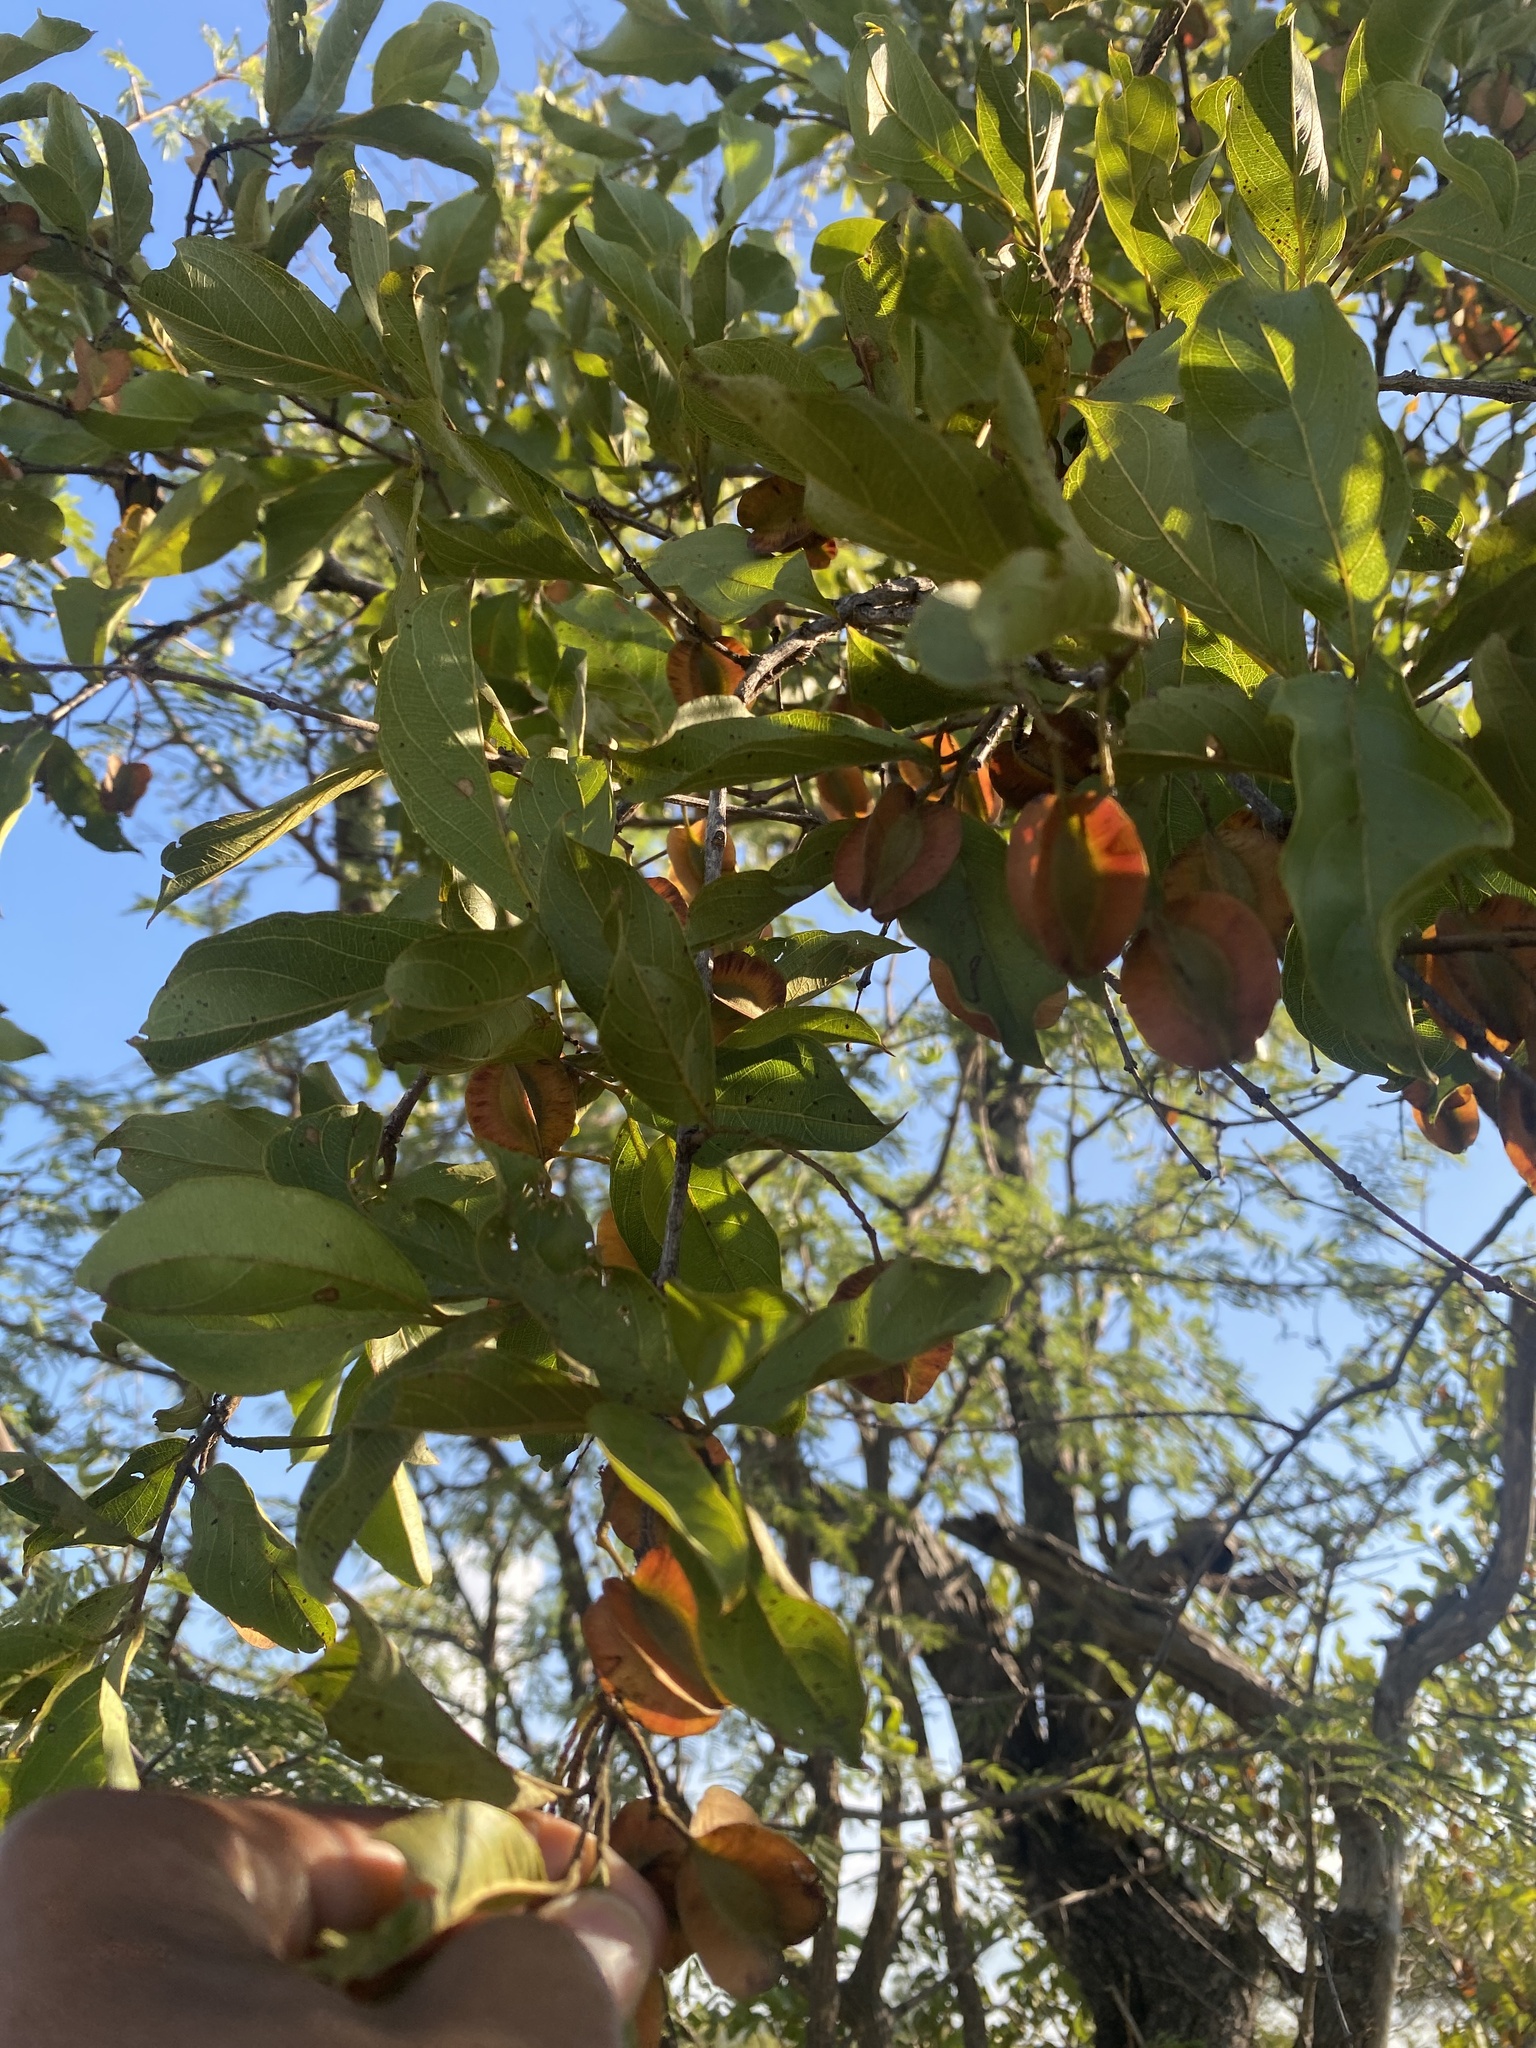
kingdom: Plantae
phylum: Tracheophyta
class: Magnoliopsida
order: Myrtales
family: Combretaceae
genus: Combretum
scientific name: Combretum apiculatum
